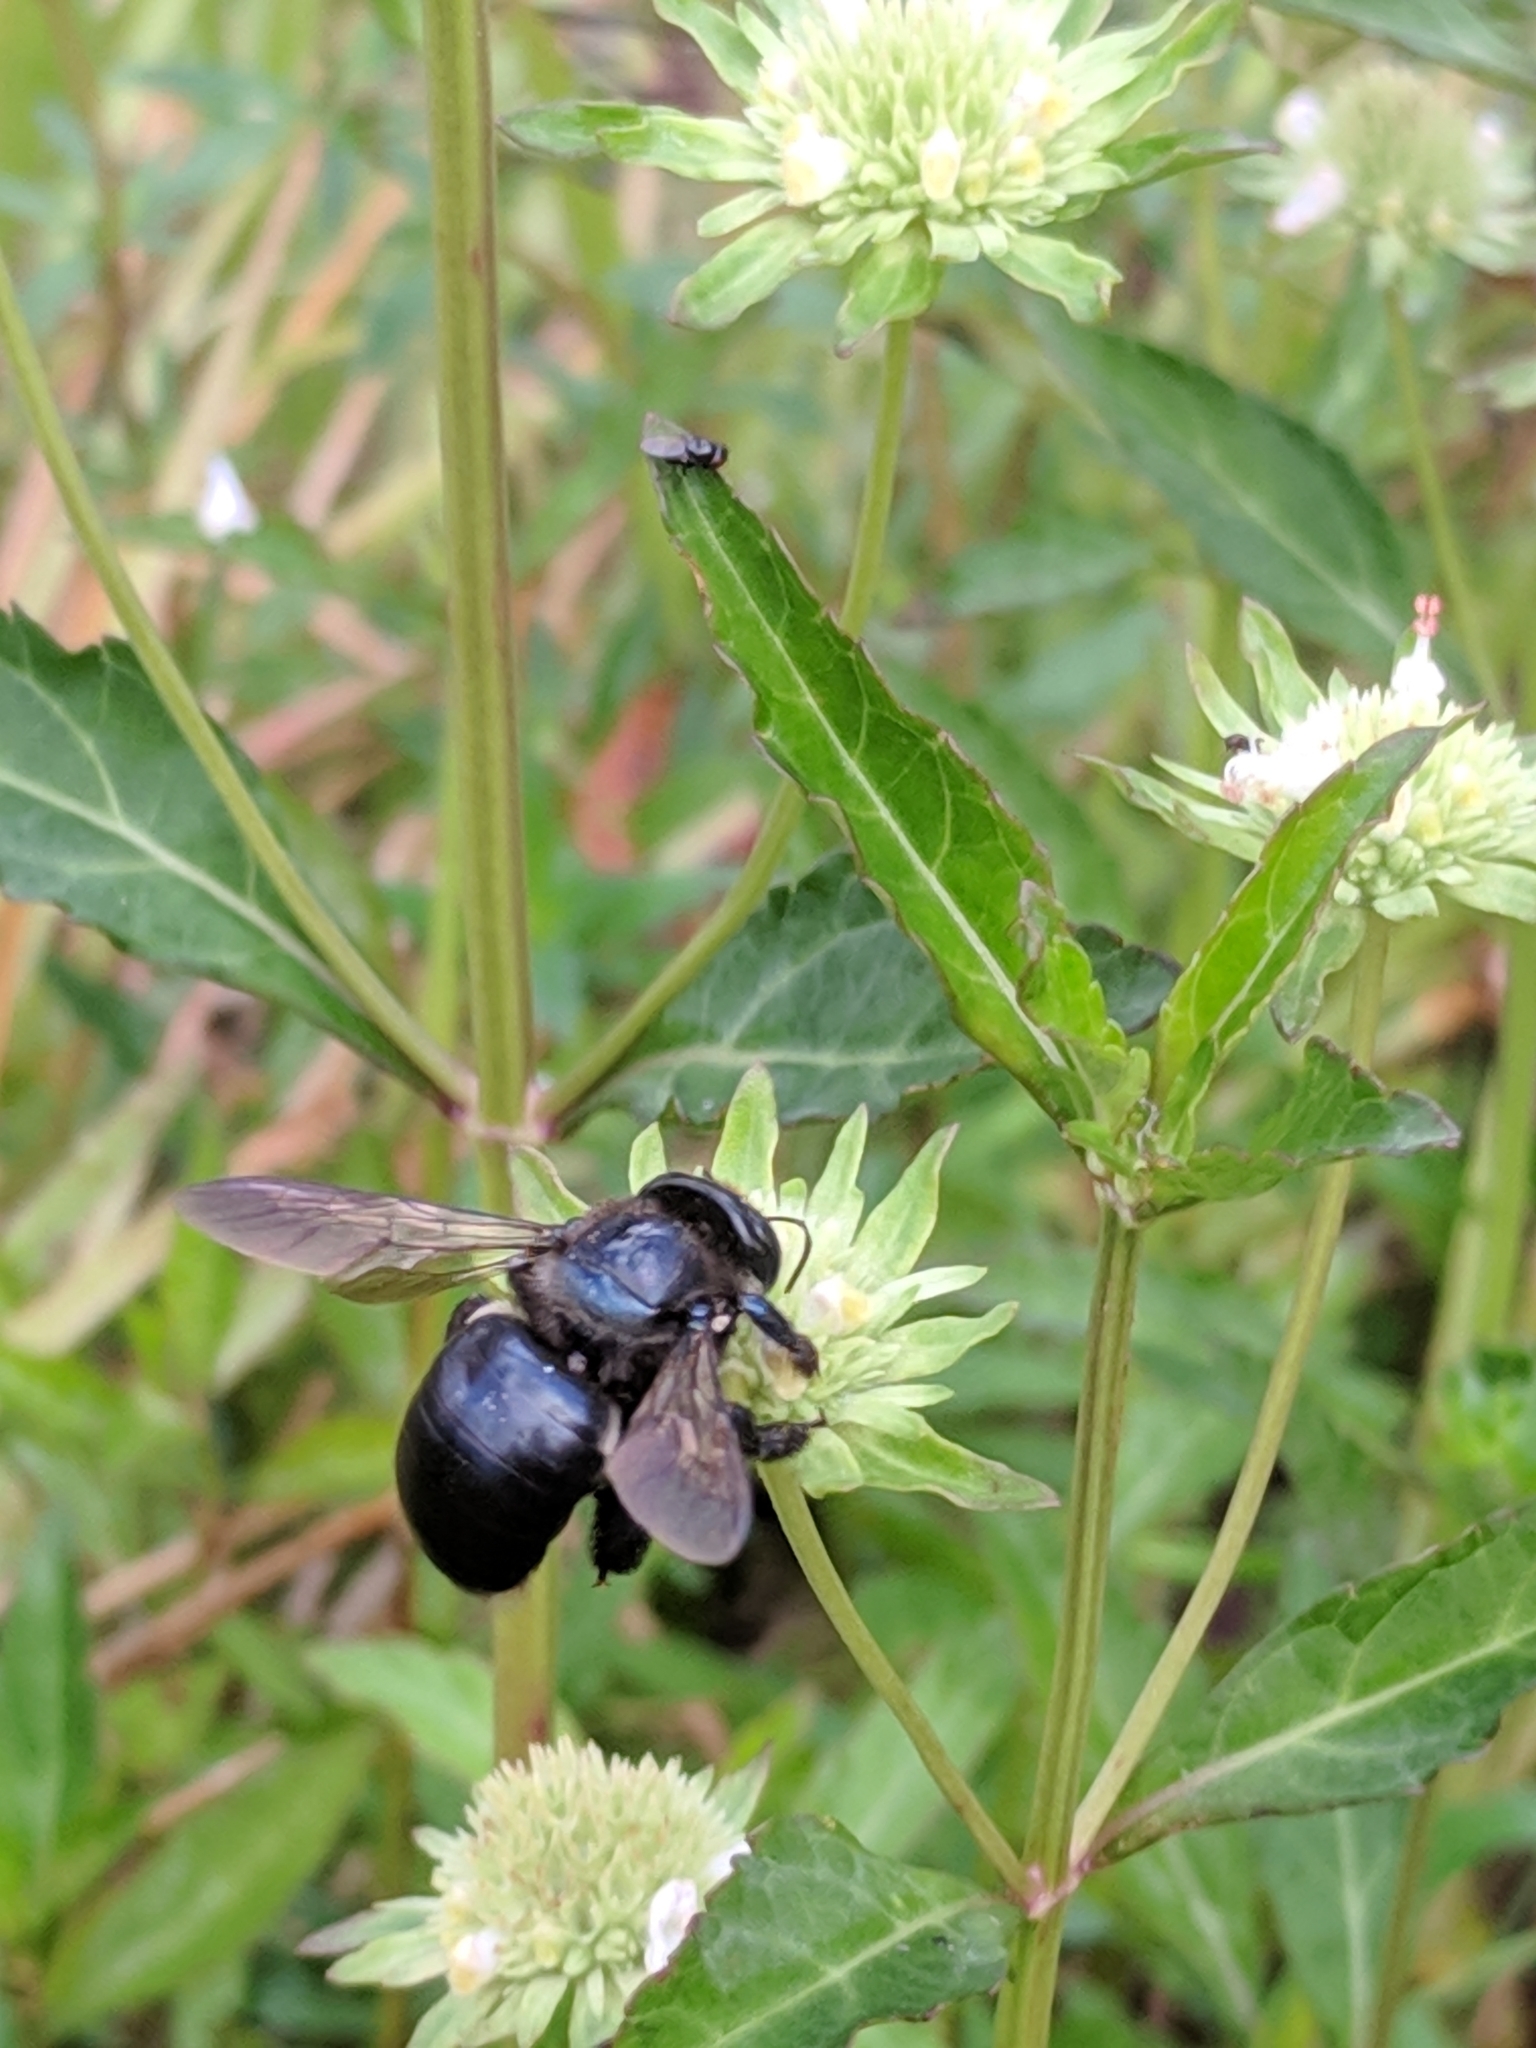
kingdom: Animalia
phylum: Arthropoda
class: Insecta
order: Hymenoptera
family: Apidae
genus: Xylocopa
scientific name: Xylocopa micans
